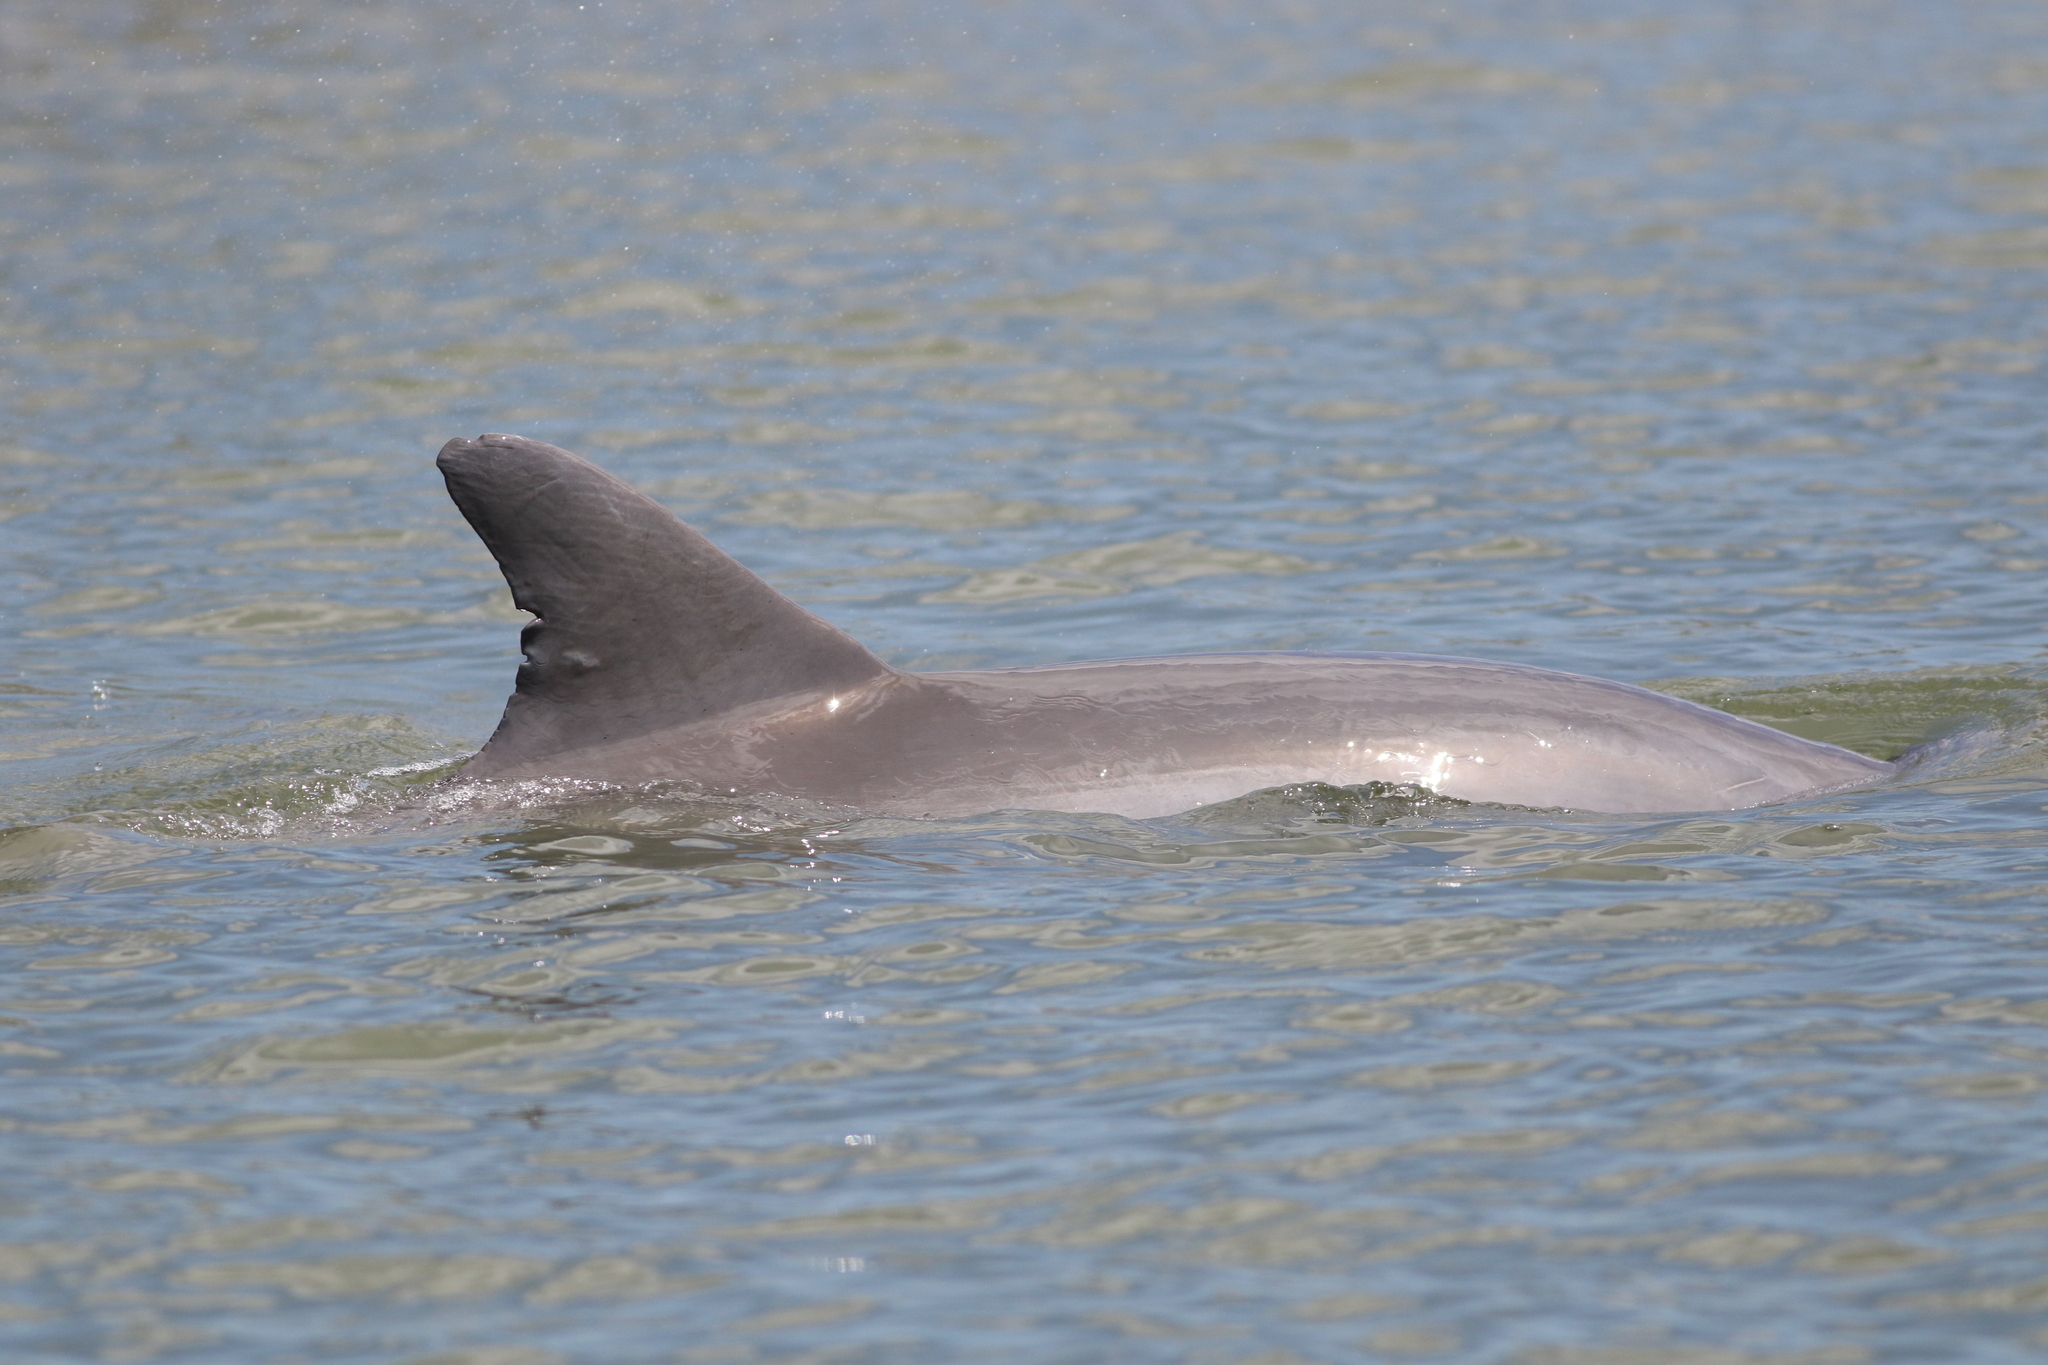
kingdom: Animalia
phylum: Chordata
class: Mammalia
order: Cetacea
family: Delphinidae
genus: Tursiops
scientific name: Tursiops truncatus
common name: Bottlenose dolphin
